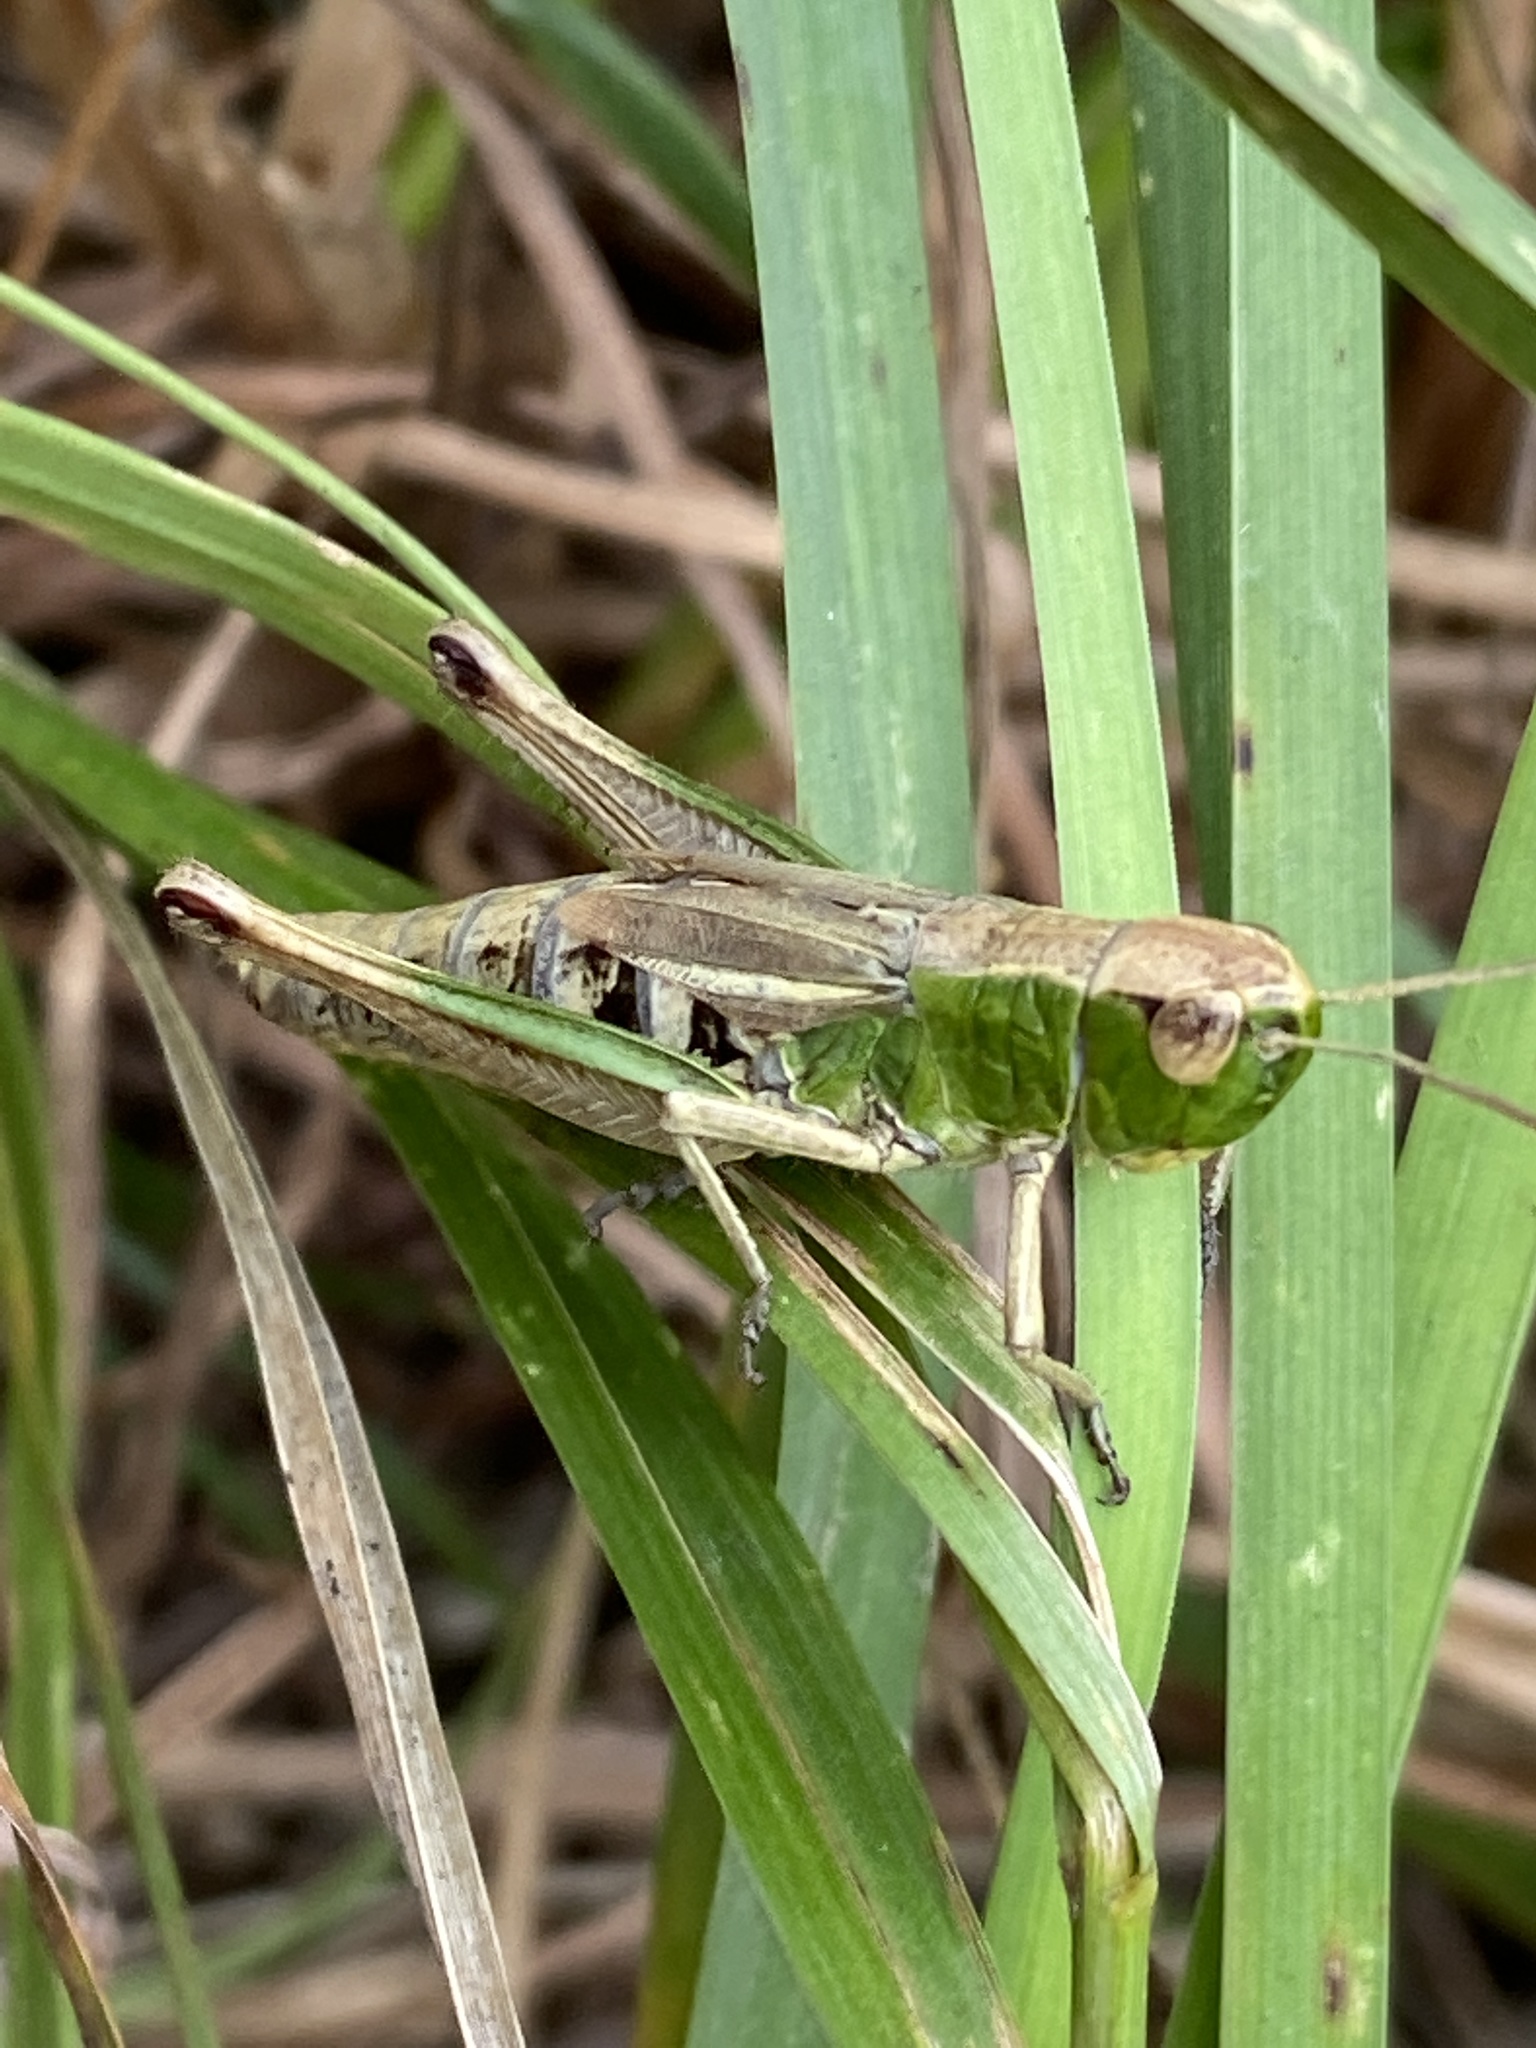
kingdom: Animalia
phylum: Arthropoda
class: Insecta
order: Orthoptera
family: Acrididae
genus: Pseudochorthippus
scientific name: Pseudochorthippus parallelus
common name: Meadow grasshopper
